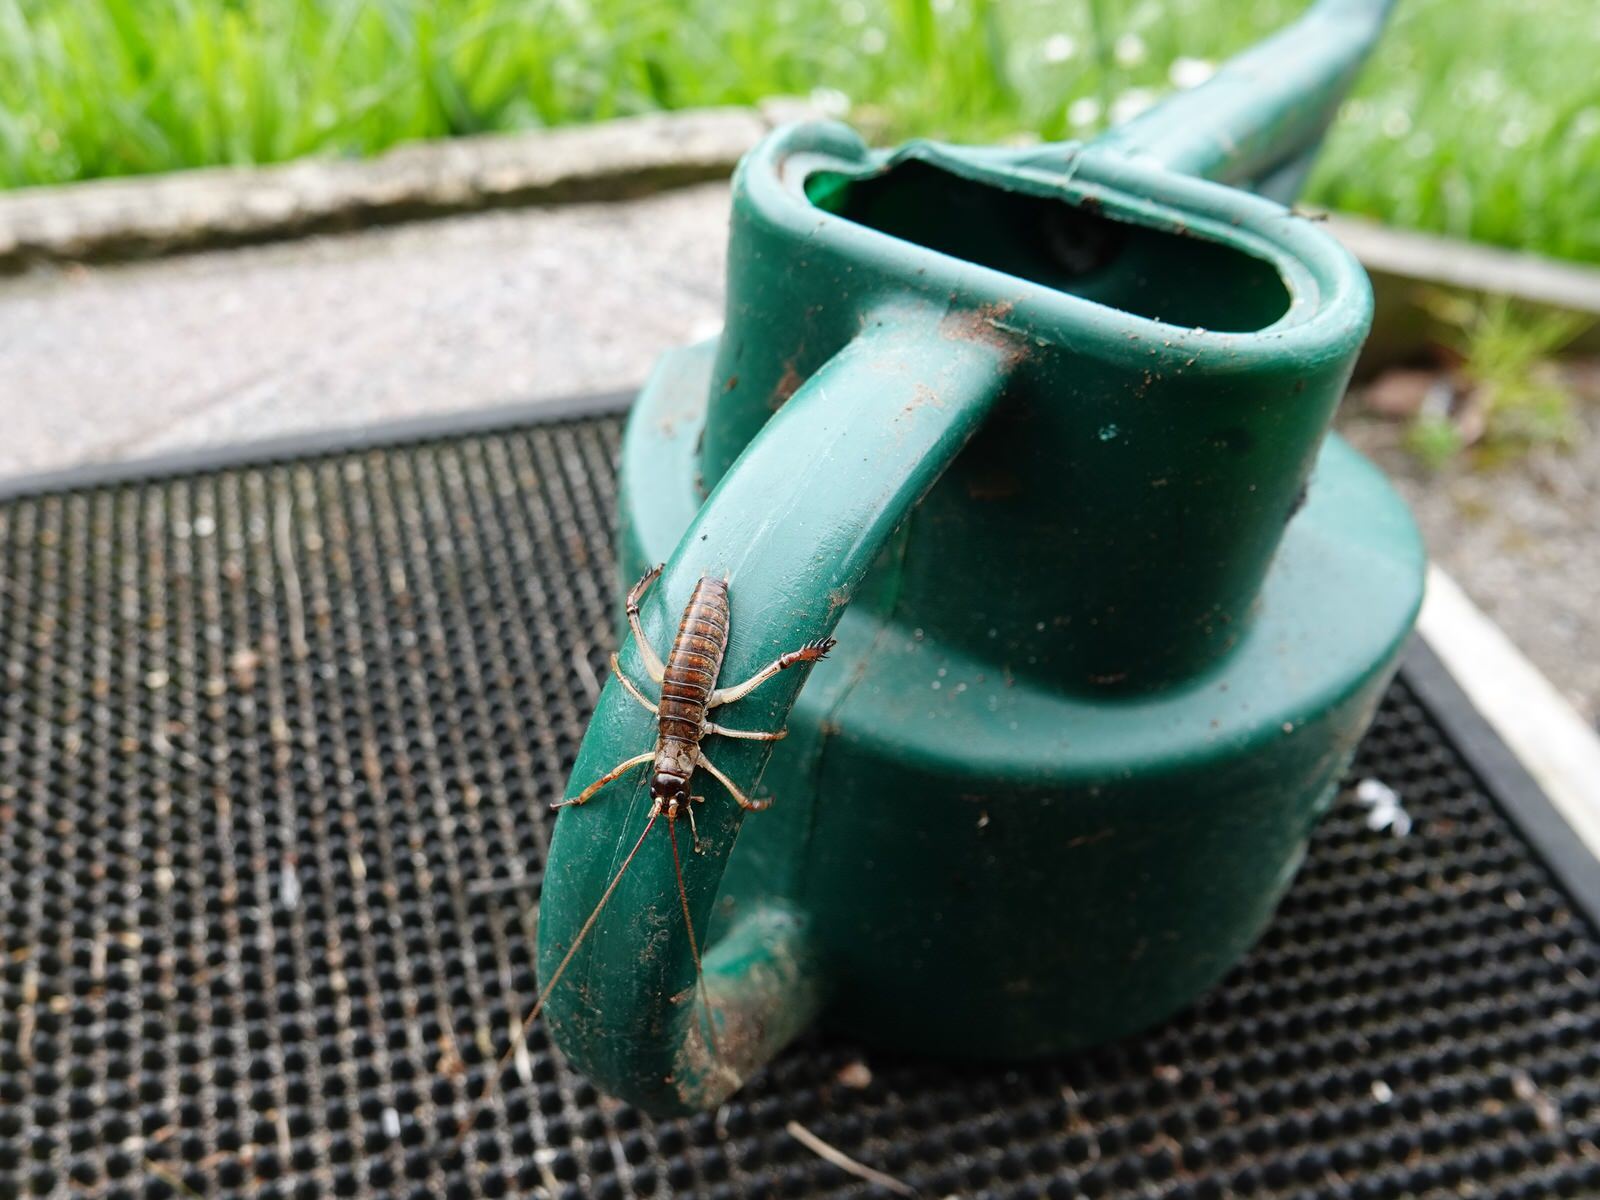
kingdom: Animalia
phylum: Arthropoda
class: Insecta
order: Orthoptera
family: Anostostomatidae
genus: Hemideina
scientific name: Hemideina thoracica
